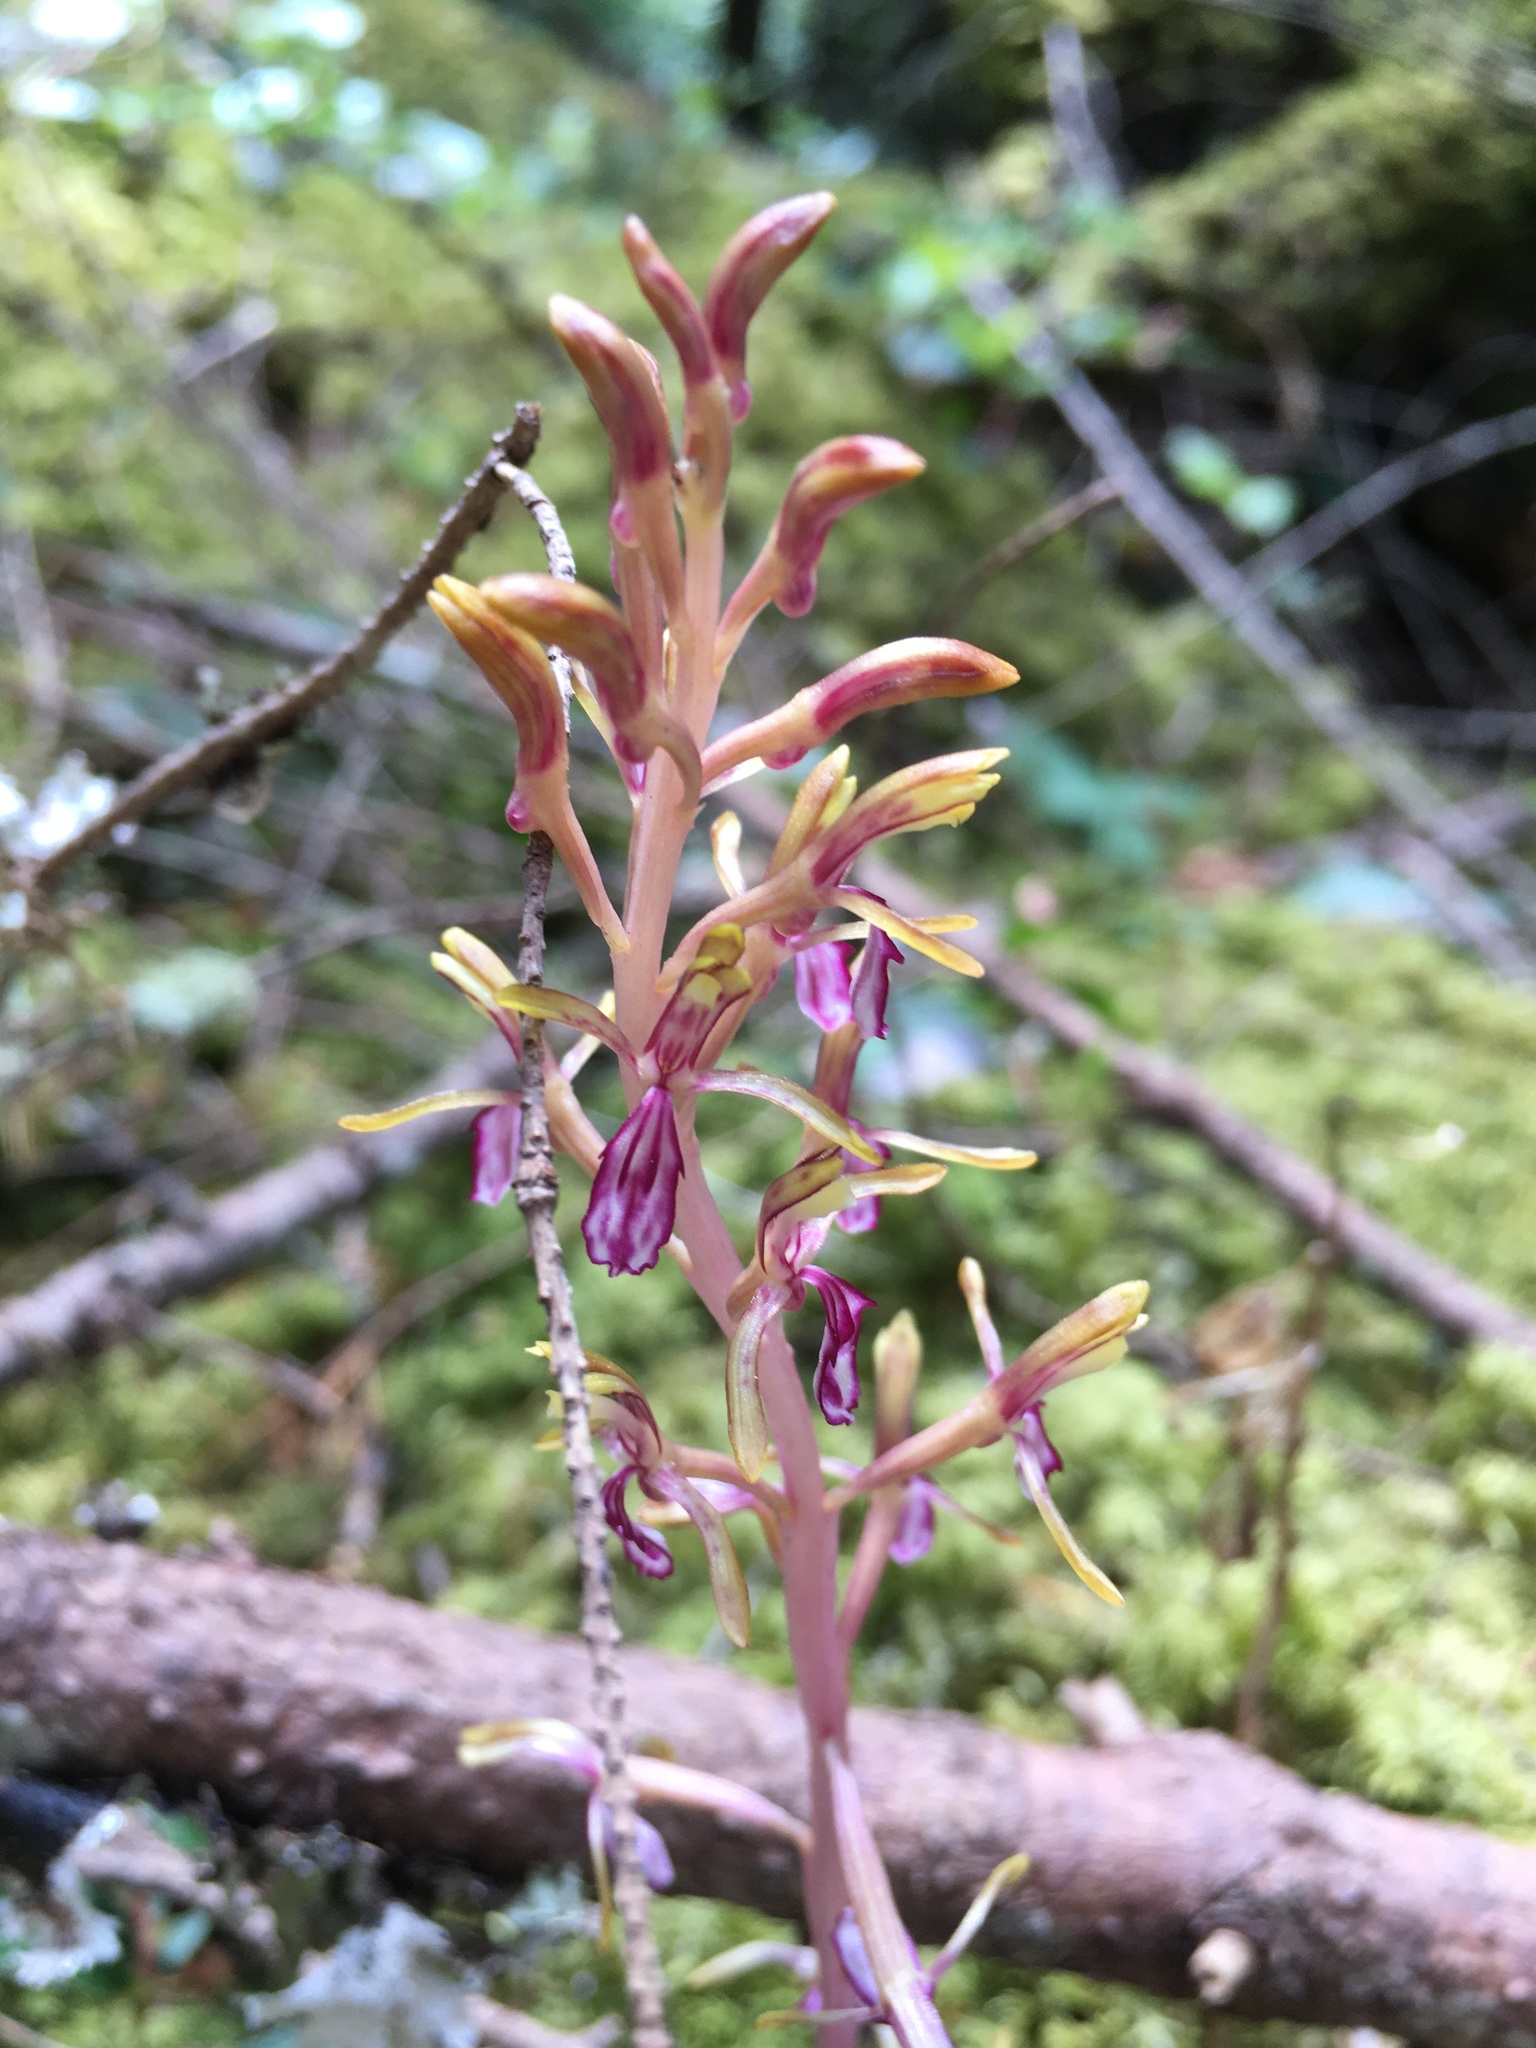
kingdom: Plantae
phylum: Tracheophyta
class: Liliopsida
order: Asparagales
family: Orchidaceae
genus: Corallorhiza
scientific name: Corallorhiza mertensiana
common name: Pacific coralroot
